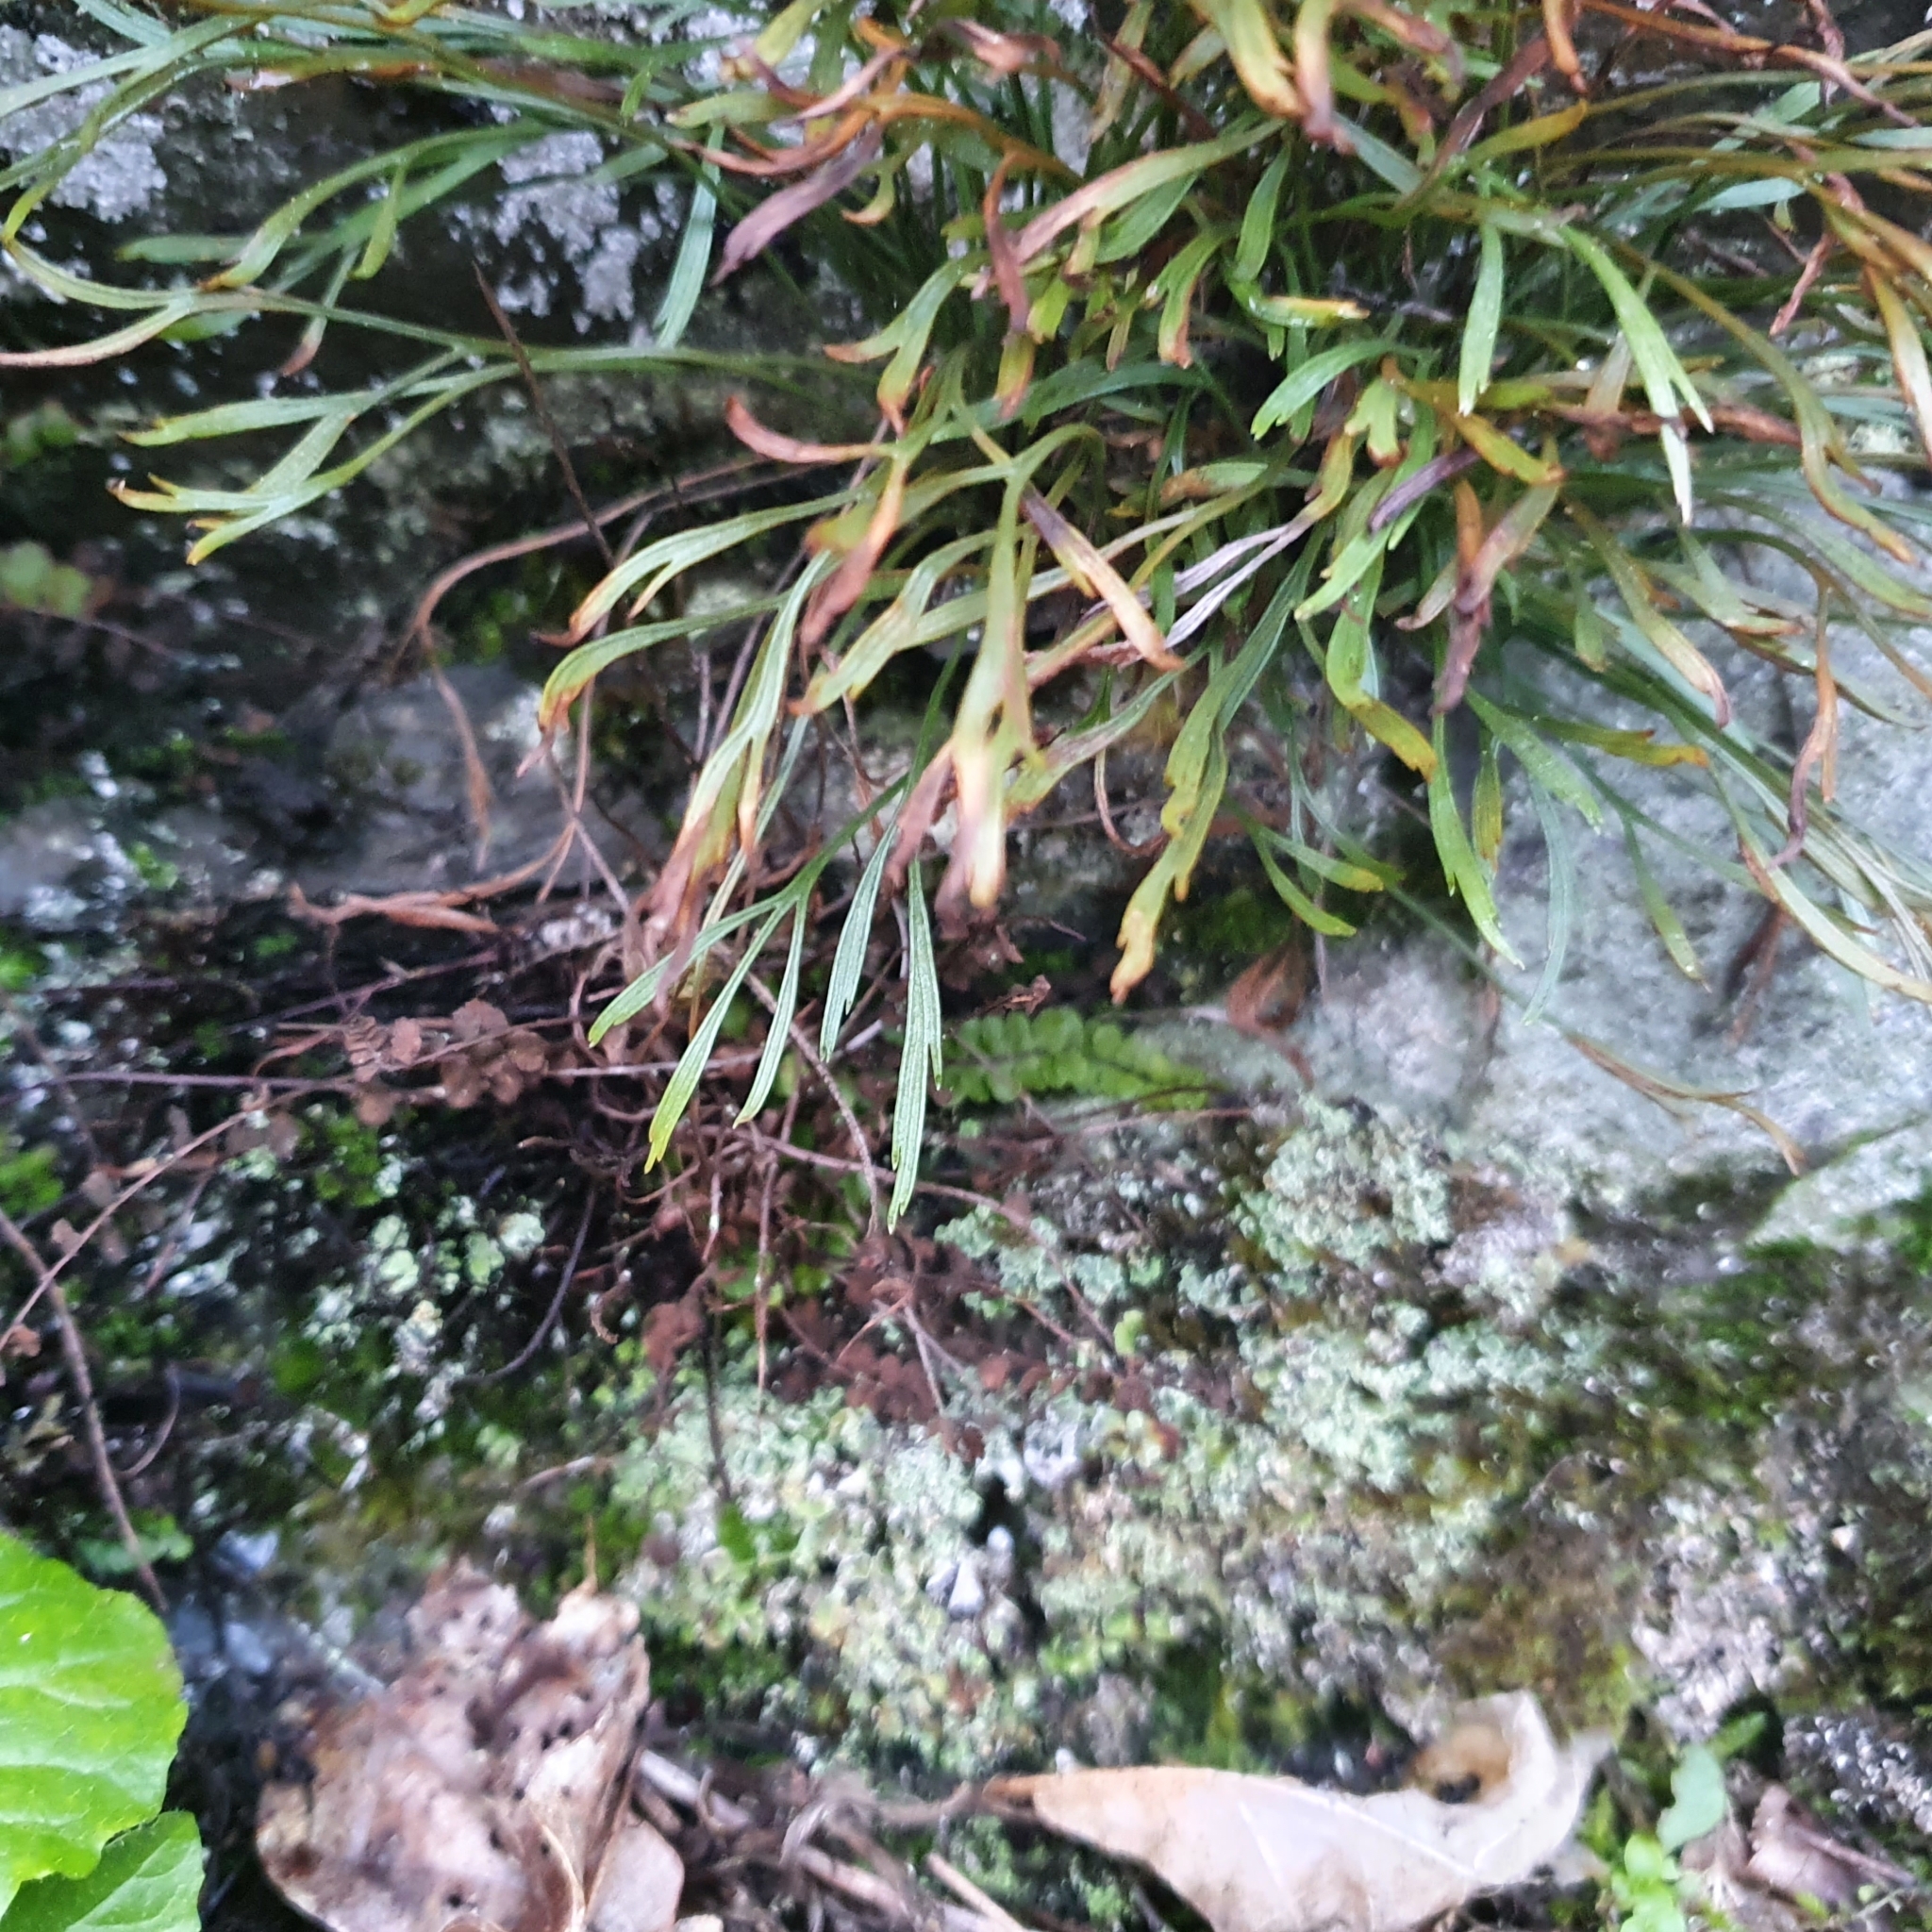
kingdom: Plantae
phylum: Tracheophyta
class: Polypodiopsida
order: Polypodiales
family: Aspleniaceae
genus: Asplenium
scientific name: Asplenium septentrionale
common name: Forked spleenwort
